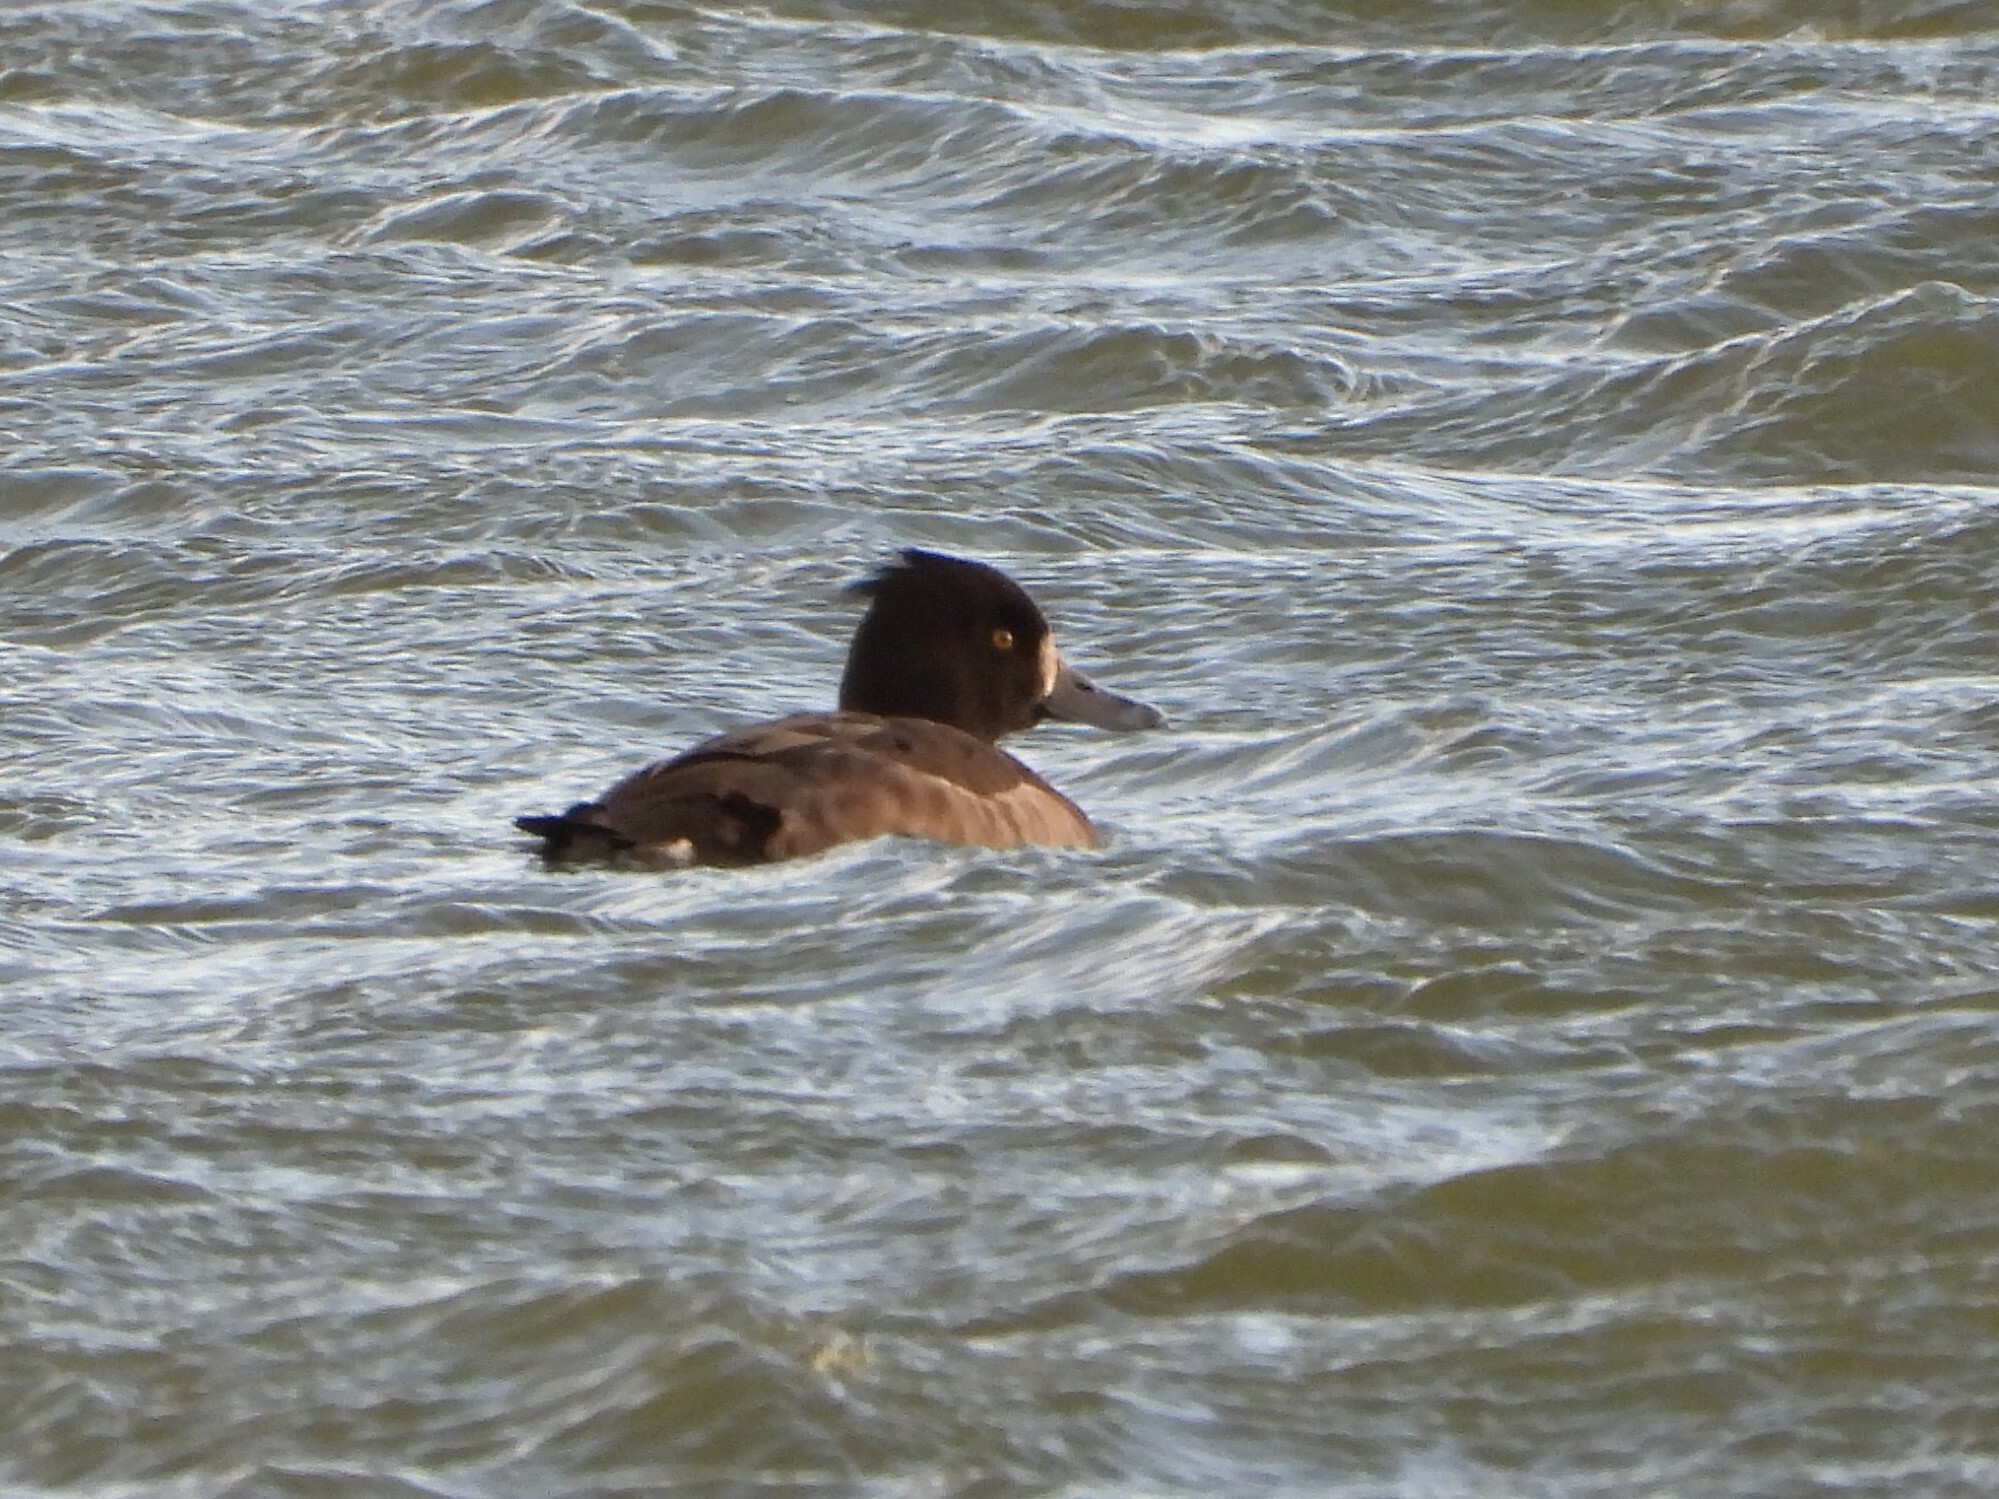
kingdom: Animalia
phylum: Chordata
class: Aves
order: Anseriformes
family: Anatidae
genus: Aythya
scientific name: Aythya fuligula
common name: Tufted duck
